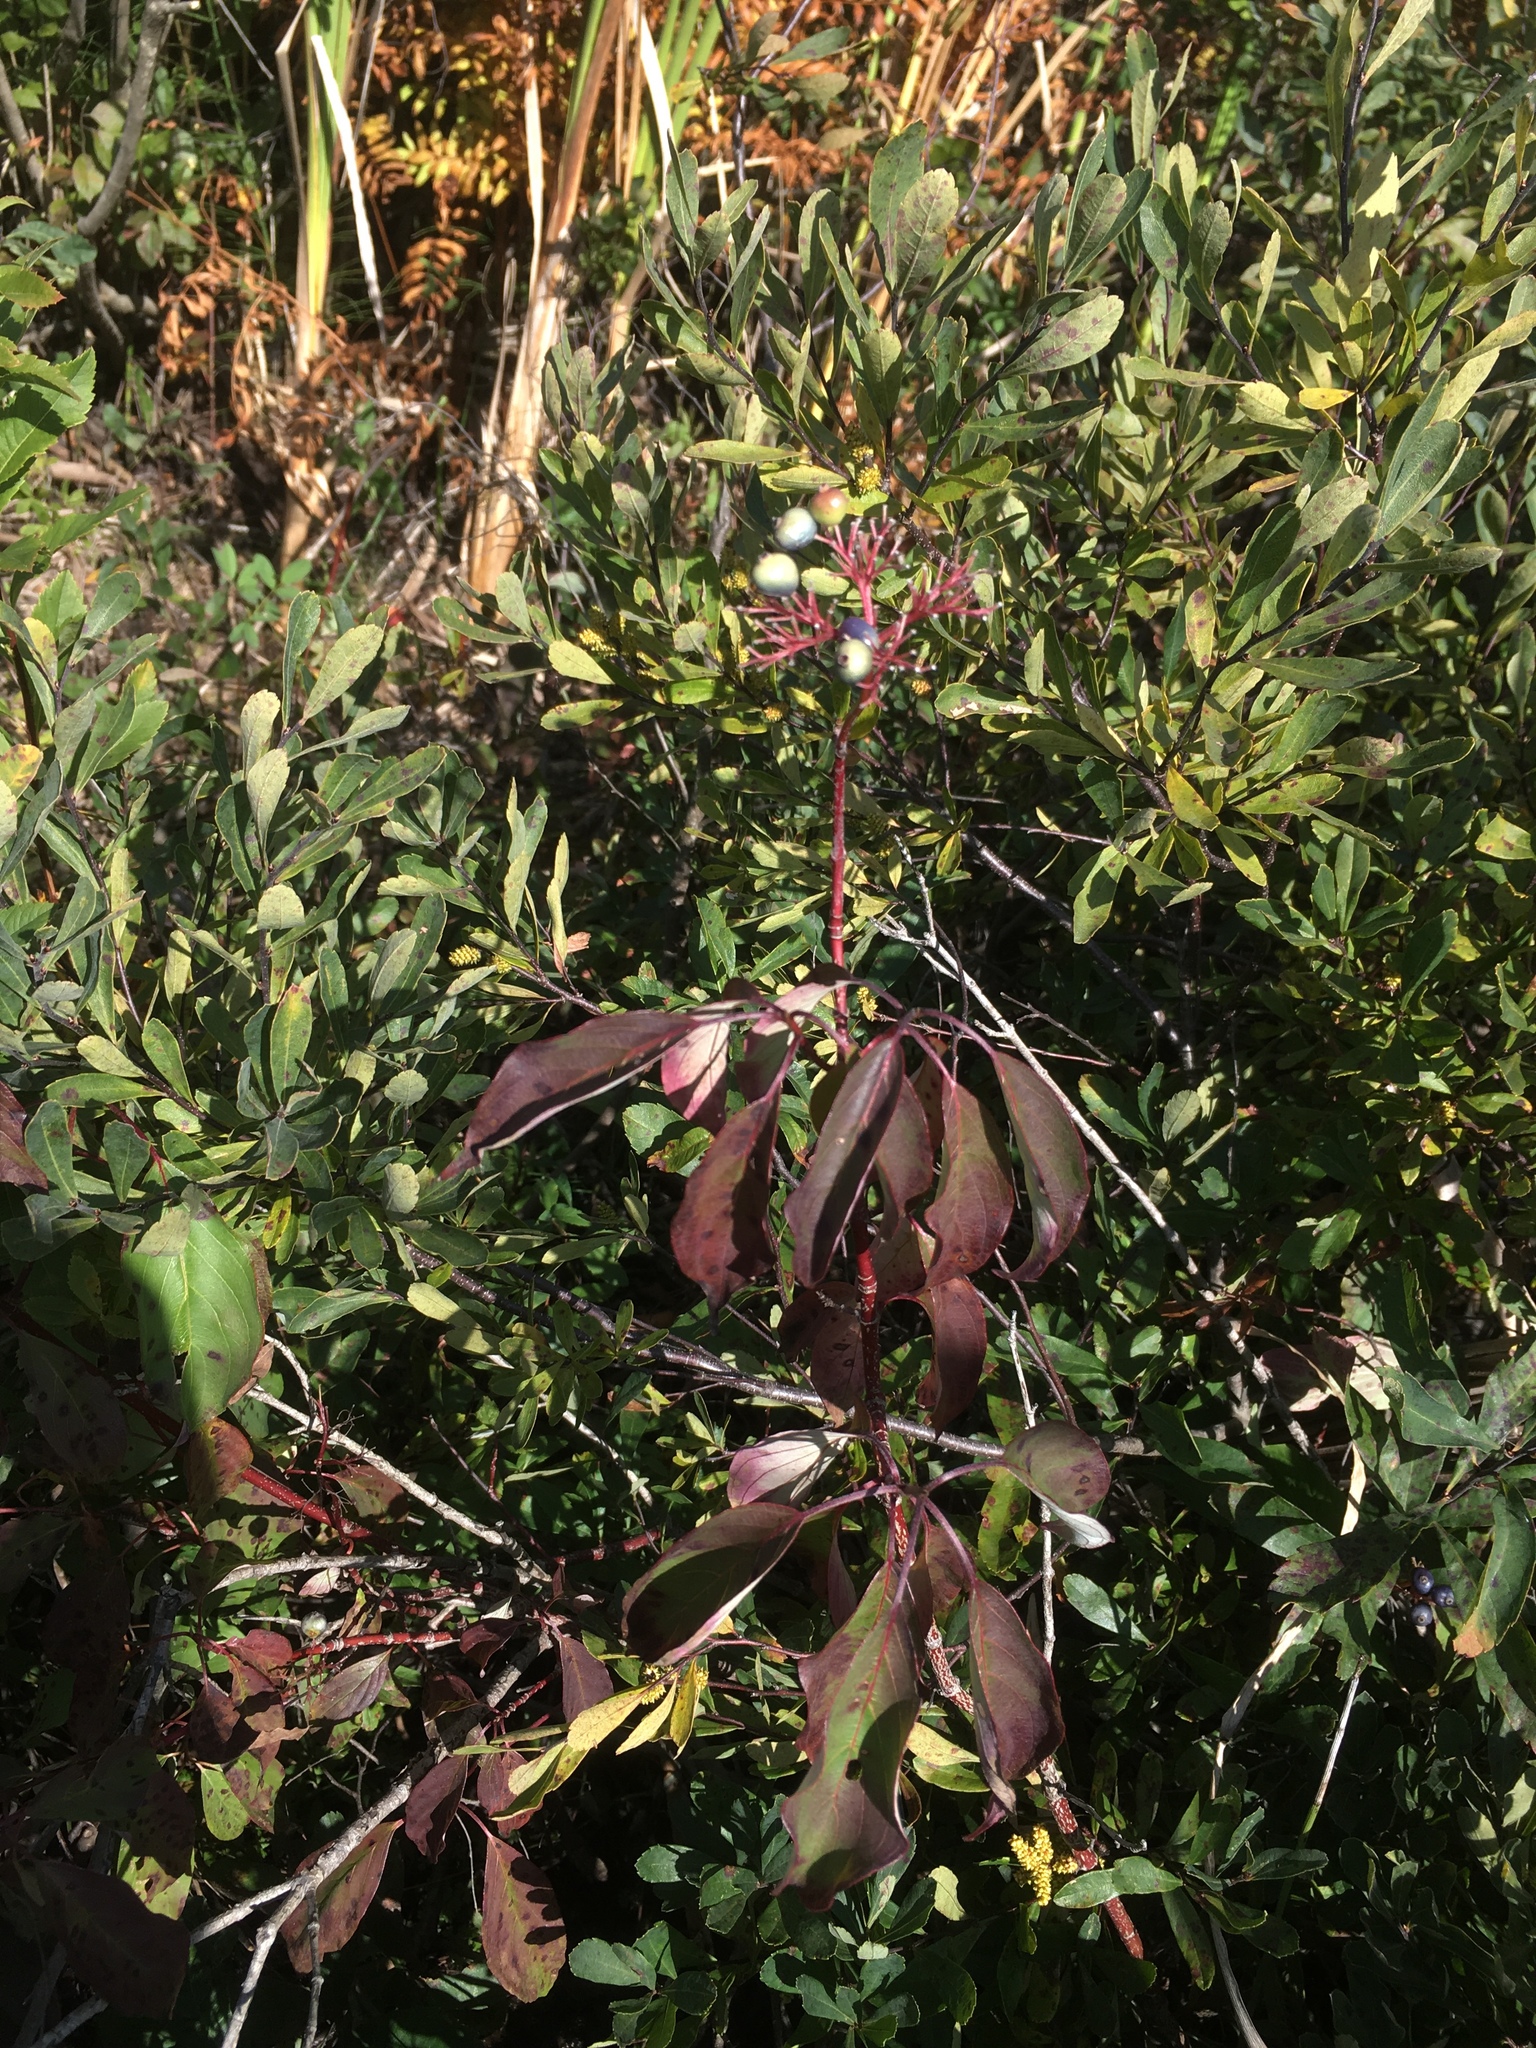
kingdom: Plantae
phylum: Tracheophyta
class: Magnoliopsida
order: Cornales
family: Cornaceae
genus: Cornus
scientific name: Cornus amomum
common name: Silky dogwood
